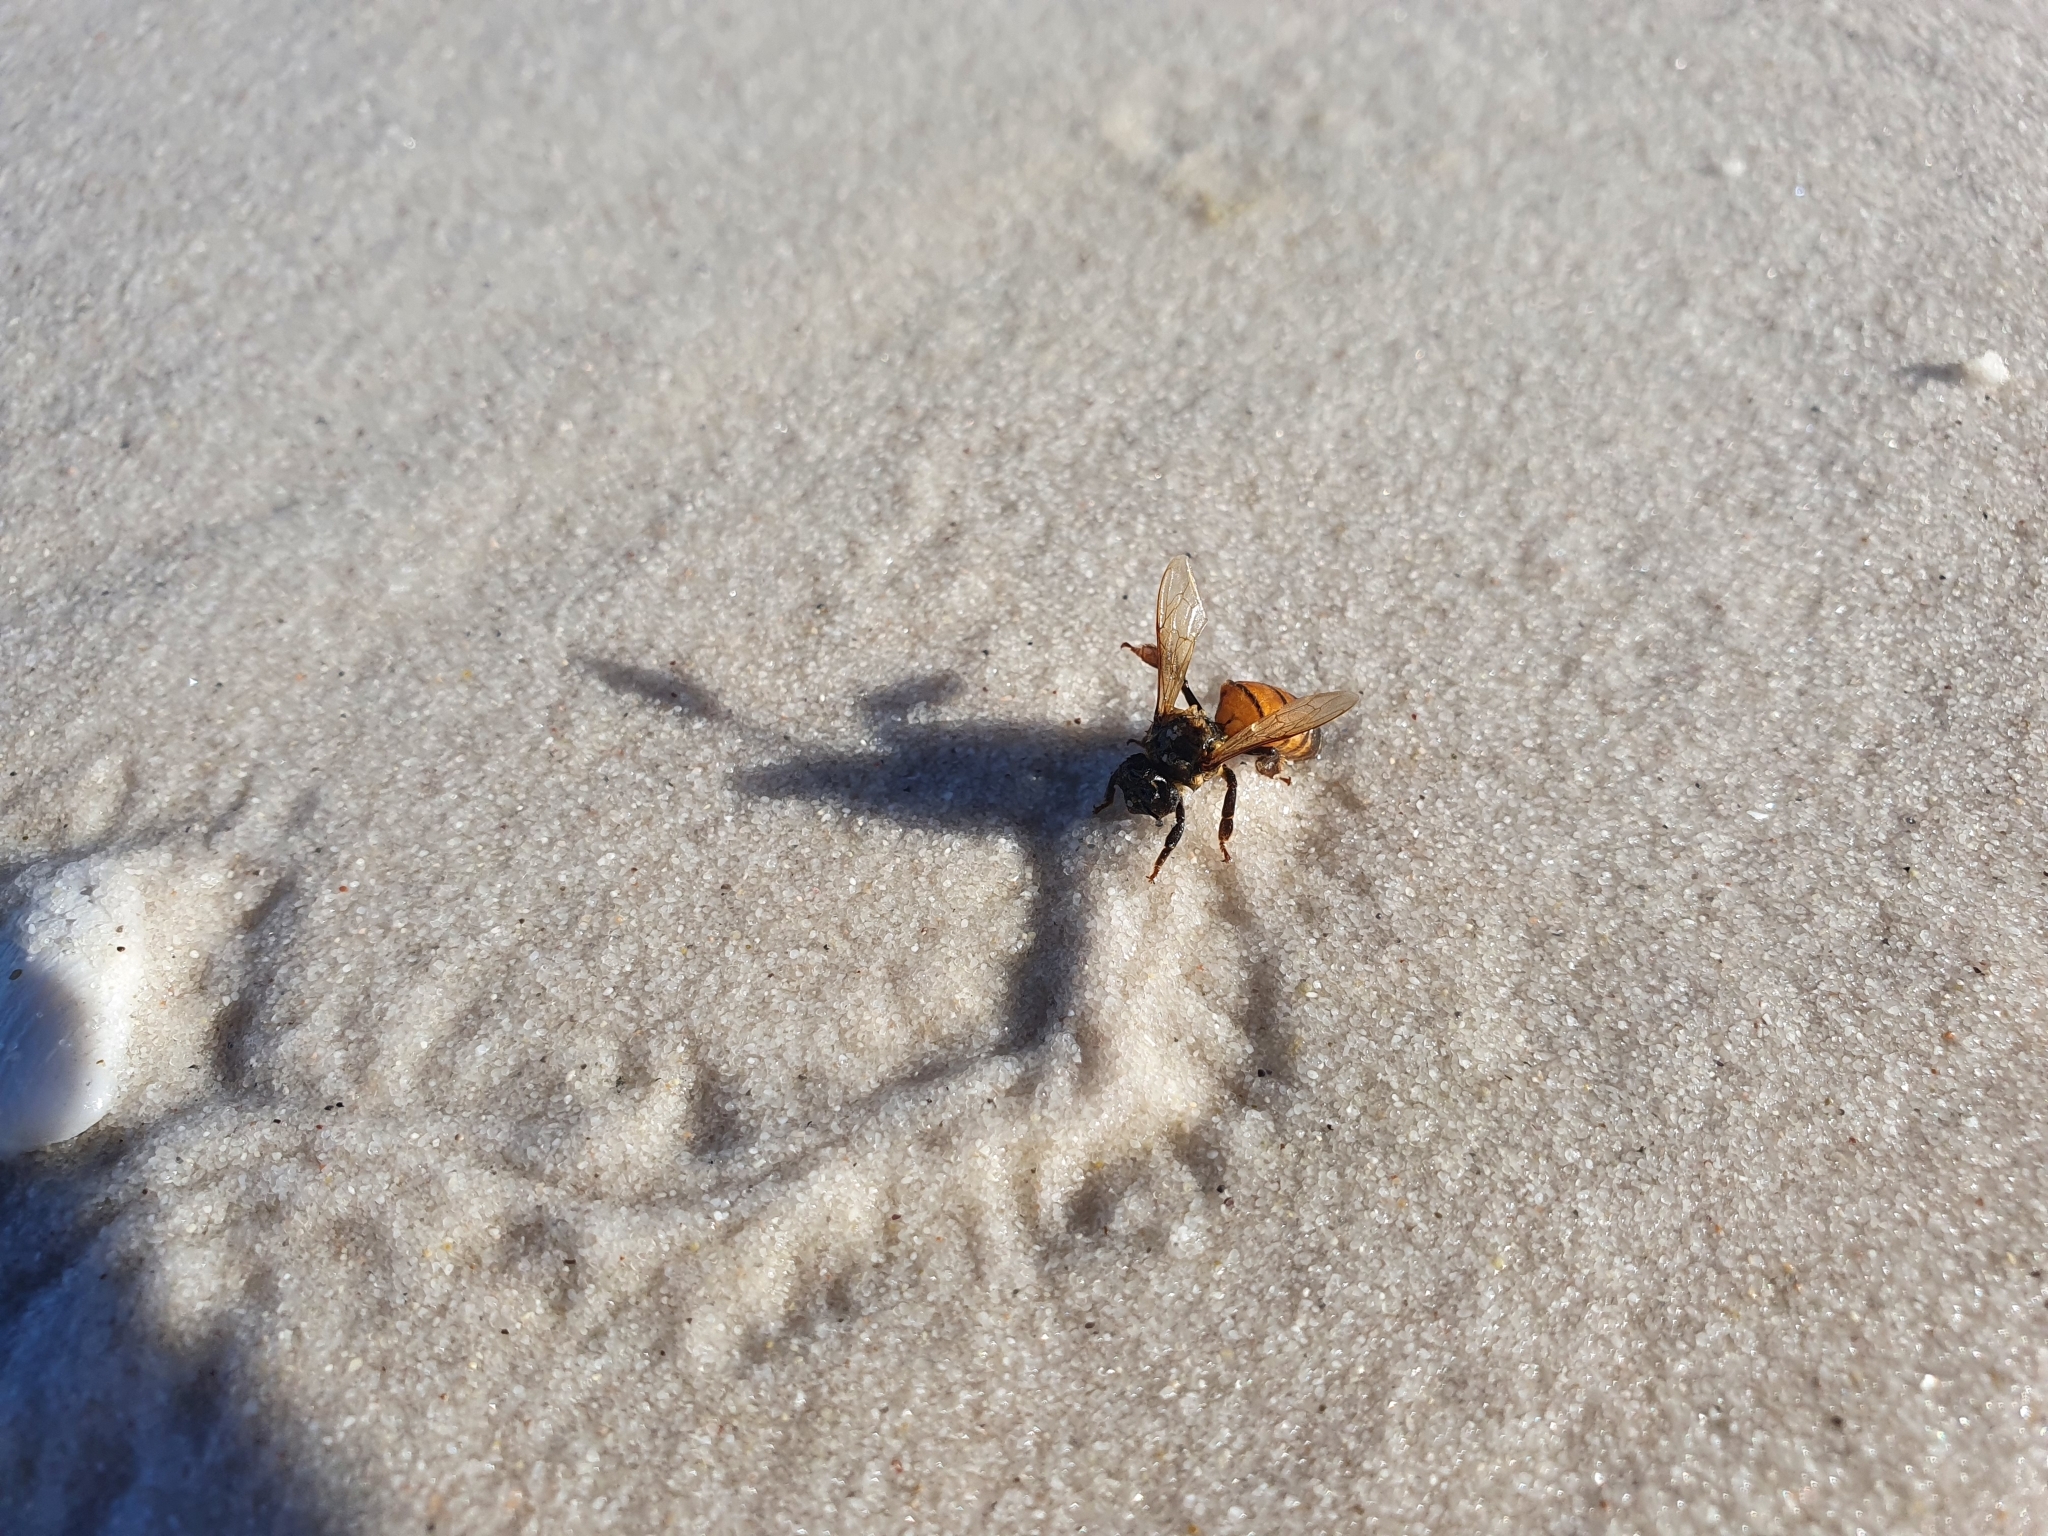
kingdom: Animalia
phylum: Arthropoda
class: Insecta
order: Hymenoptera
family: Apidae
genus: Apis
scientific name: Apis mellifera
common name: Honey bee
